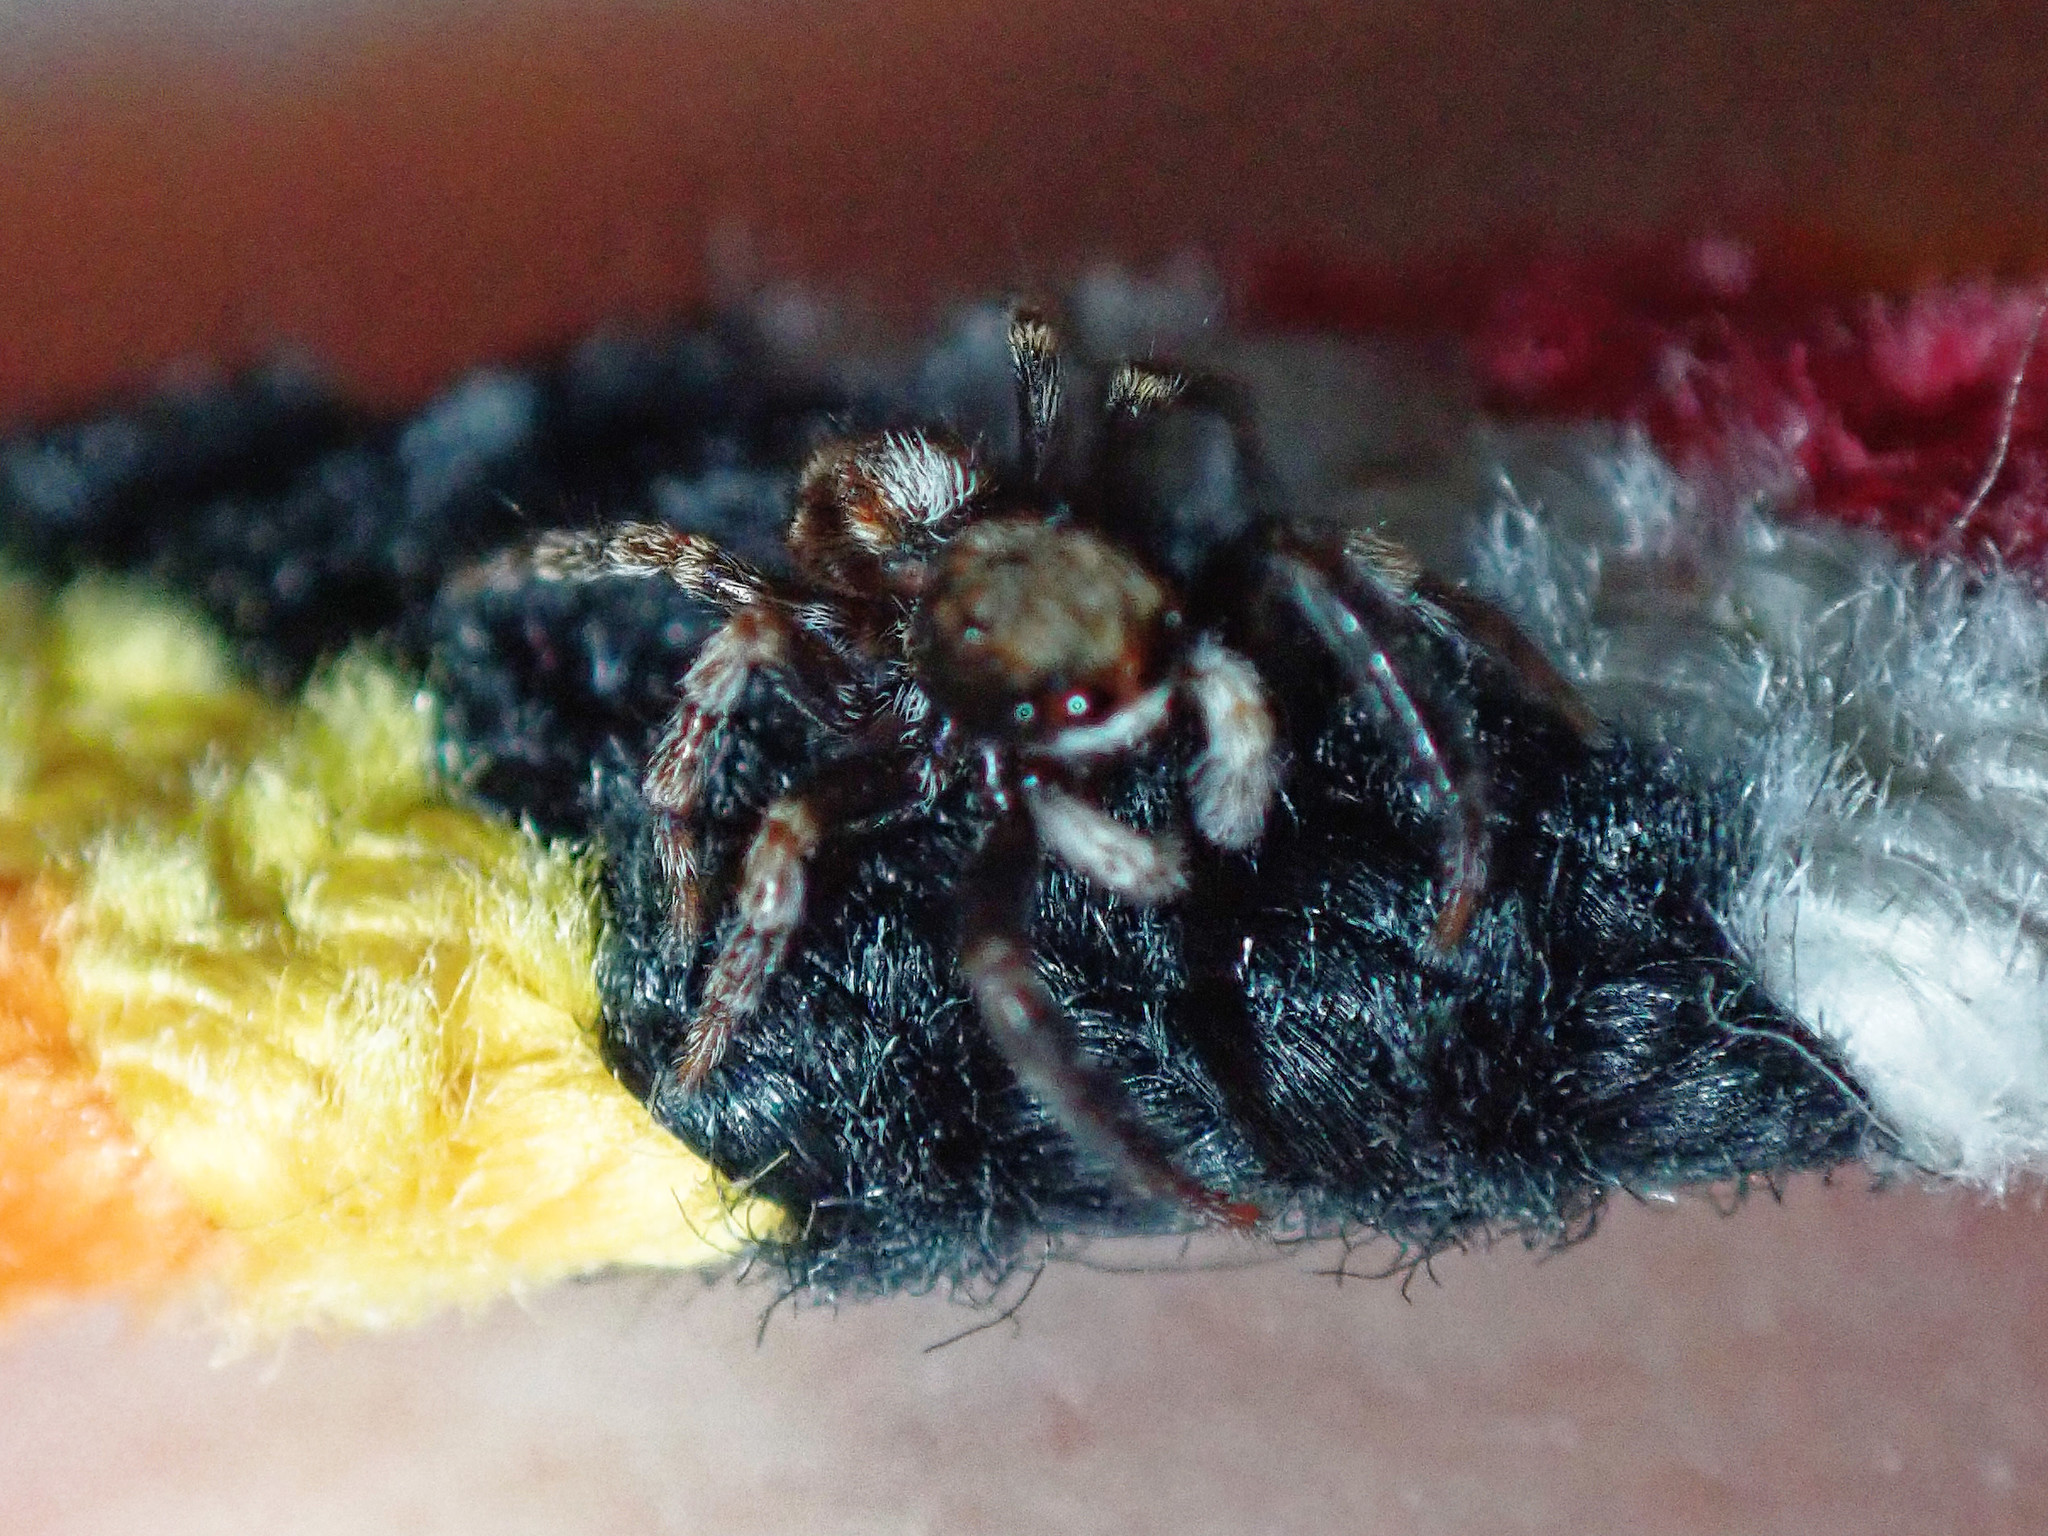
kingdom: Animalia
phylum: Arthropoda
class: Arachnida
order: Araneae
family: Salticidae
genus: Pseudeuophrys
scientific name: Pseudeuophrys lanigera
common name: Jumping spider
